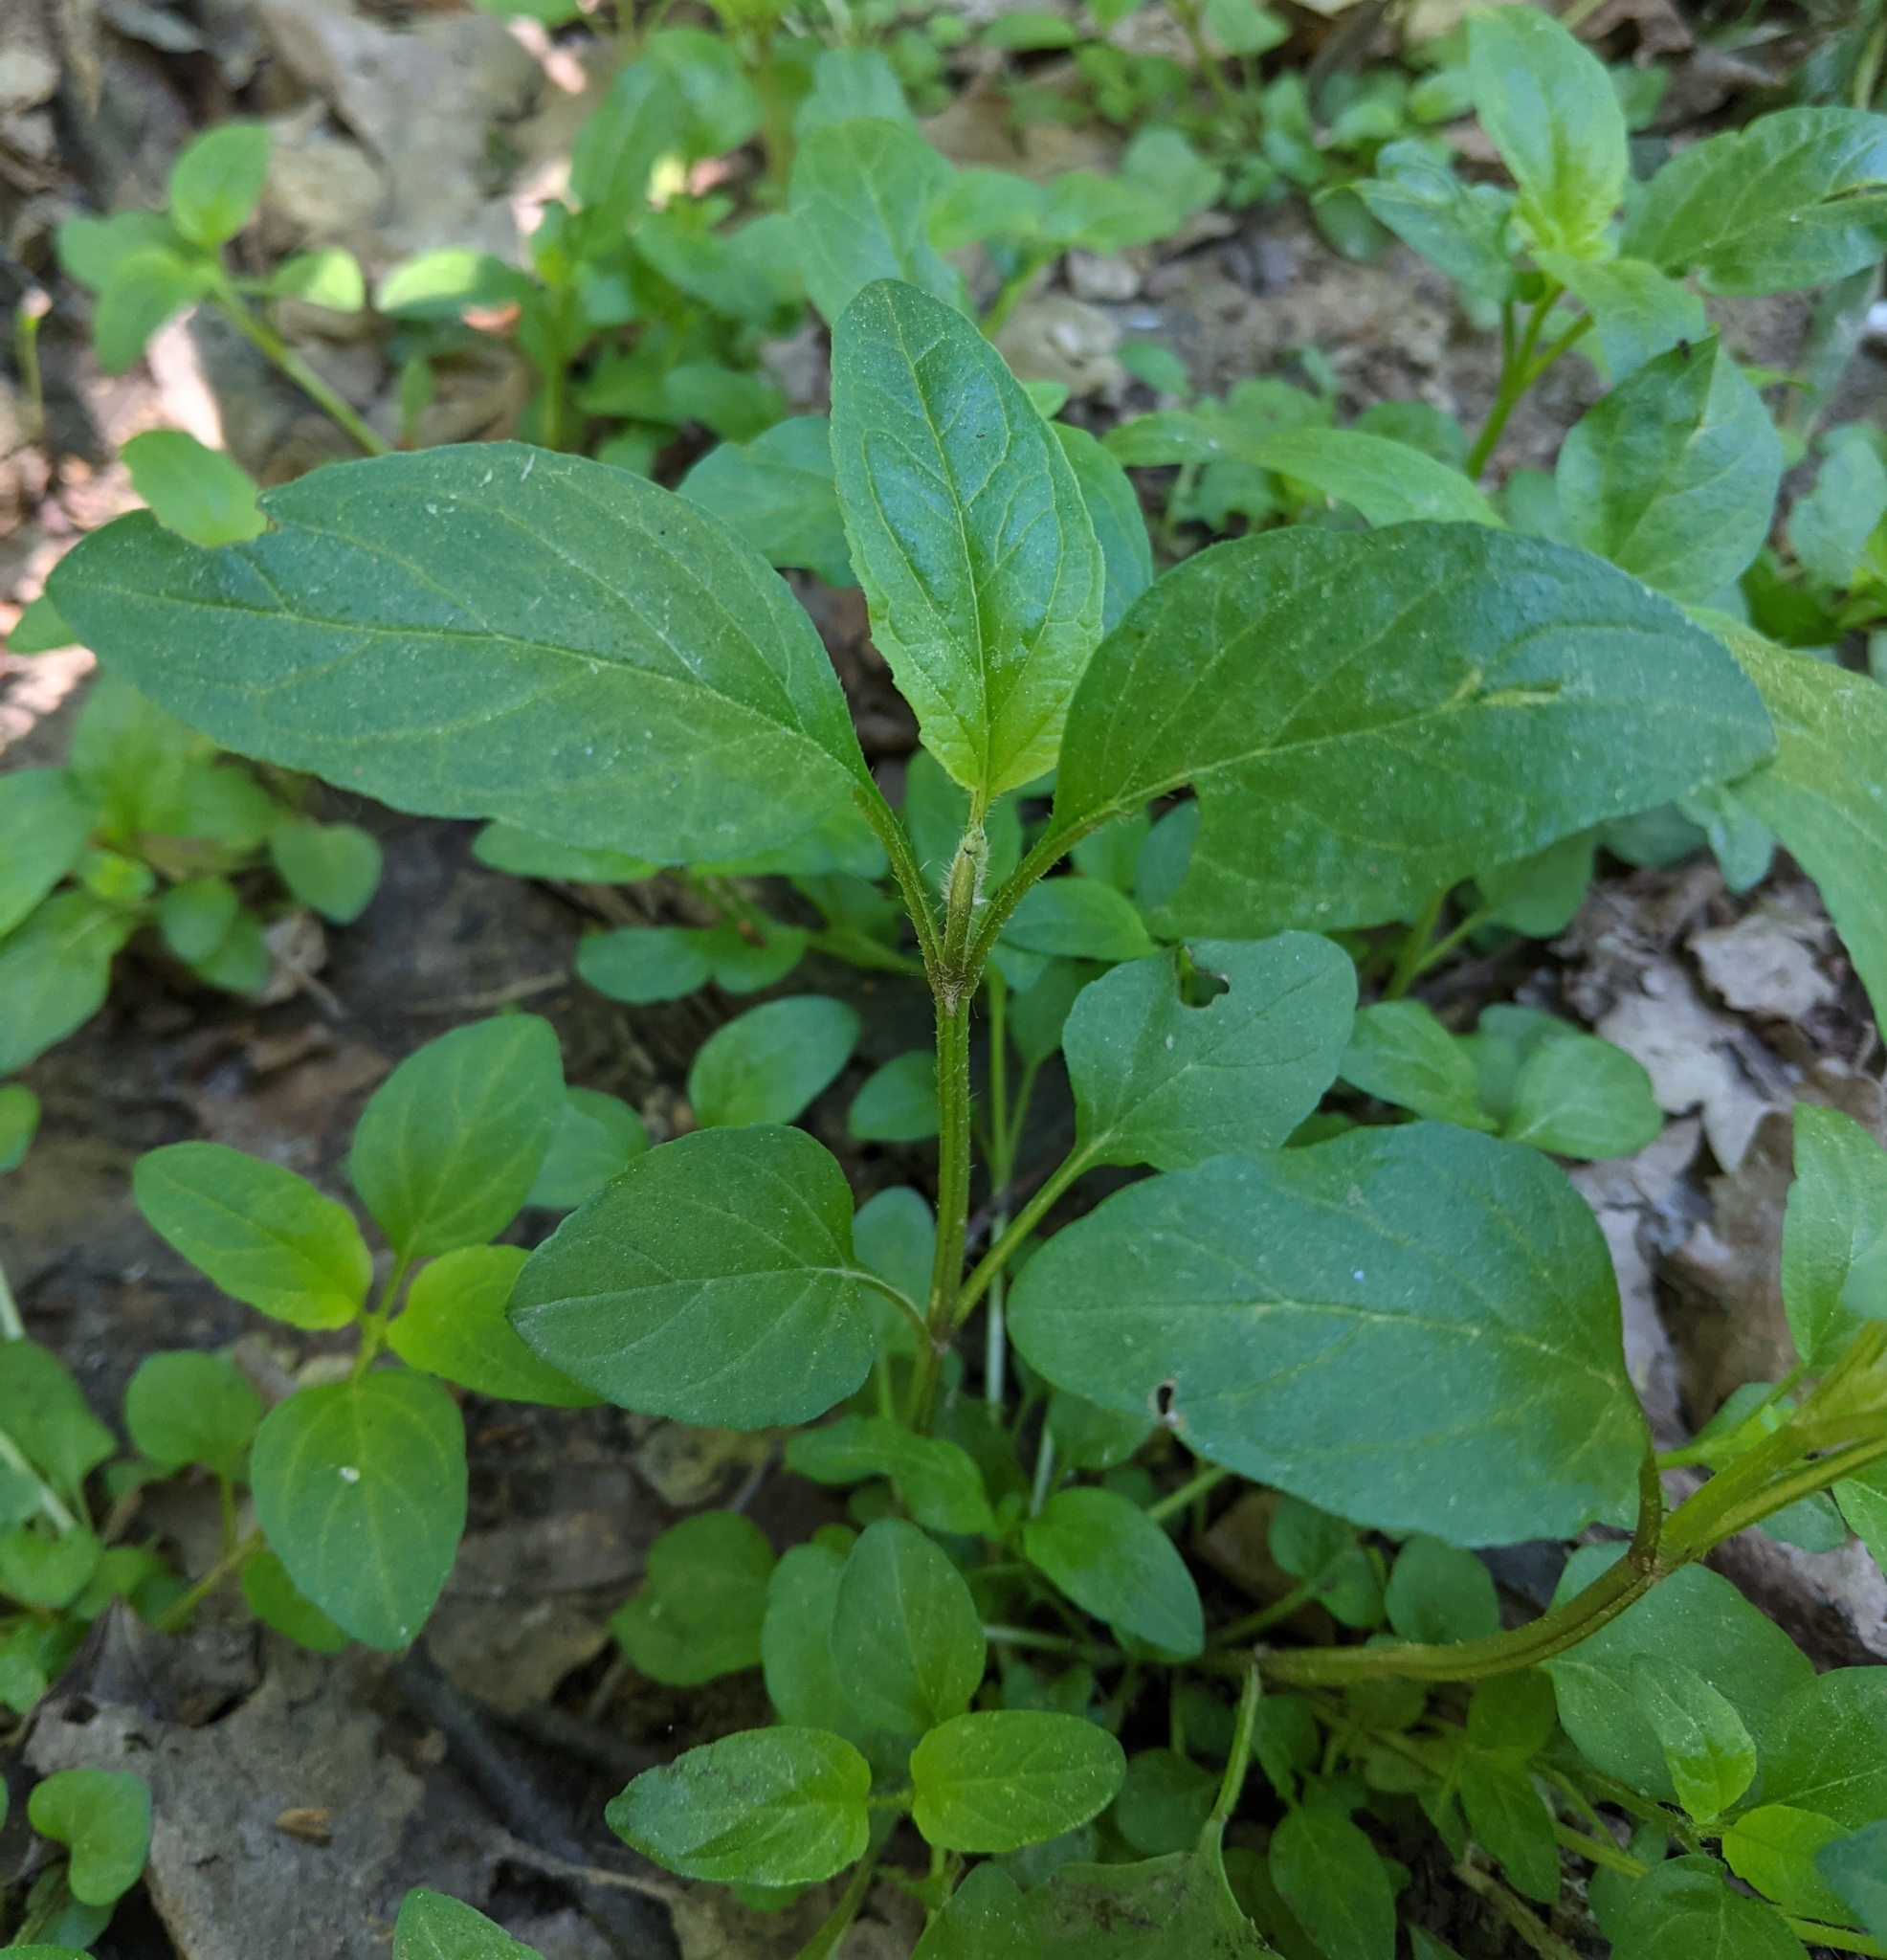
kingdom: Plantae
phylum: Tracheophyta
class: Magnoliopsida
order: Lamiales
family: Lamiaceae
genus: Prunella
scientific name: Prunella vulgaris
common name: Heal-all
